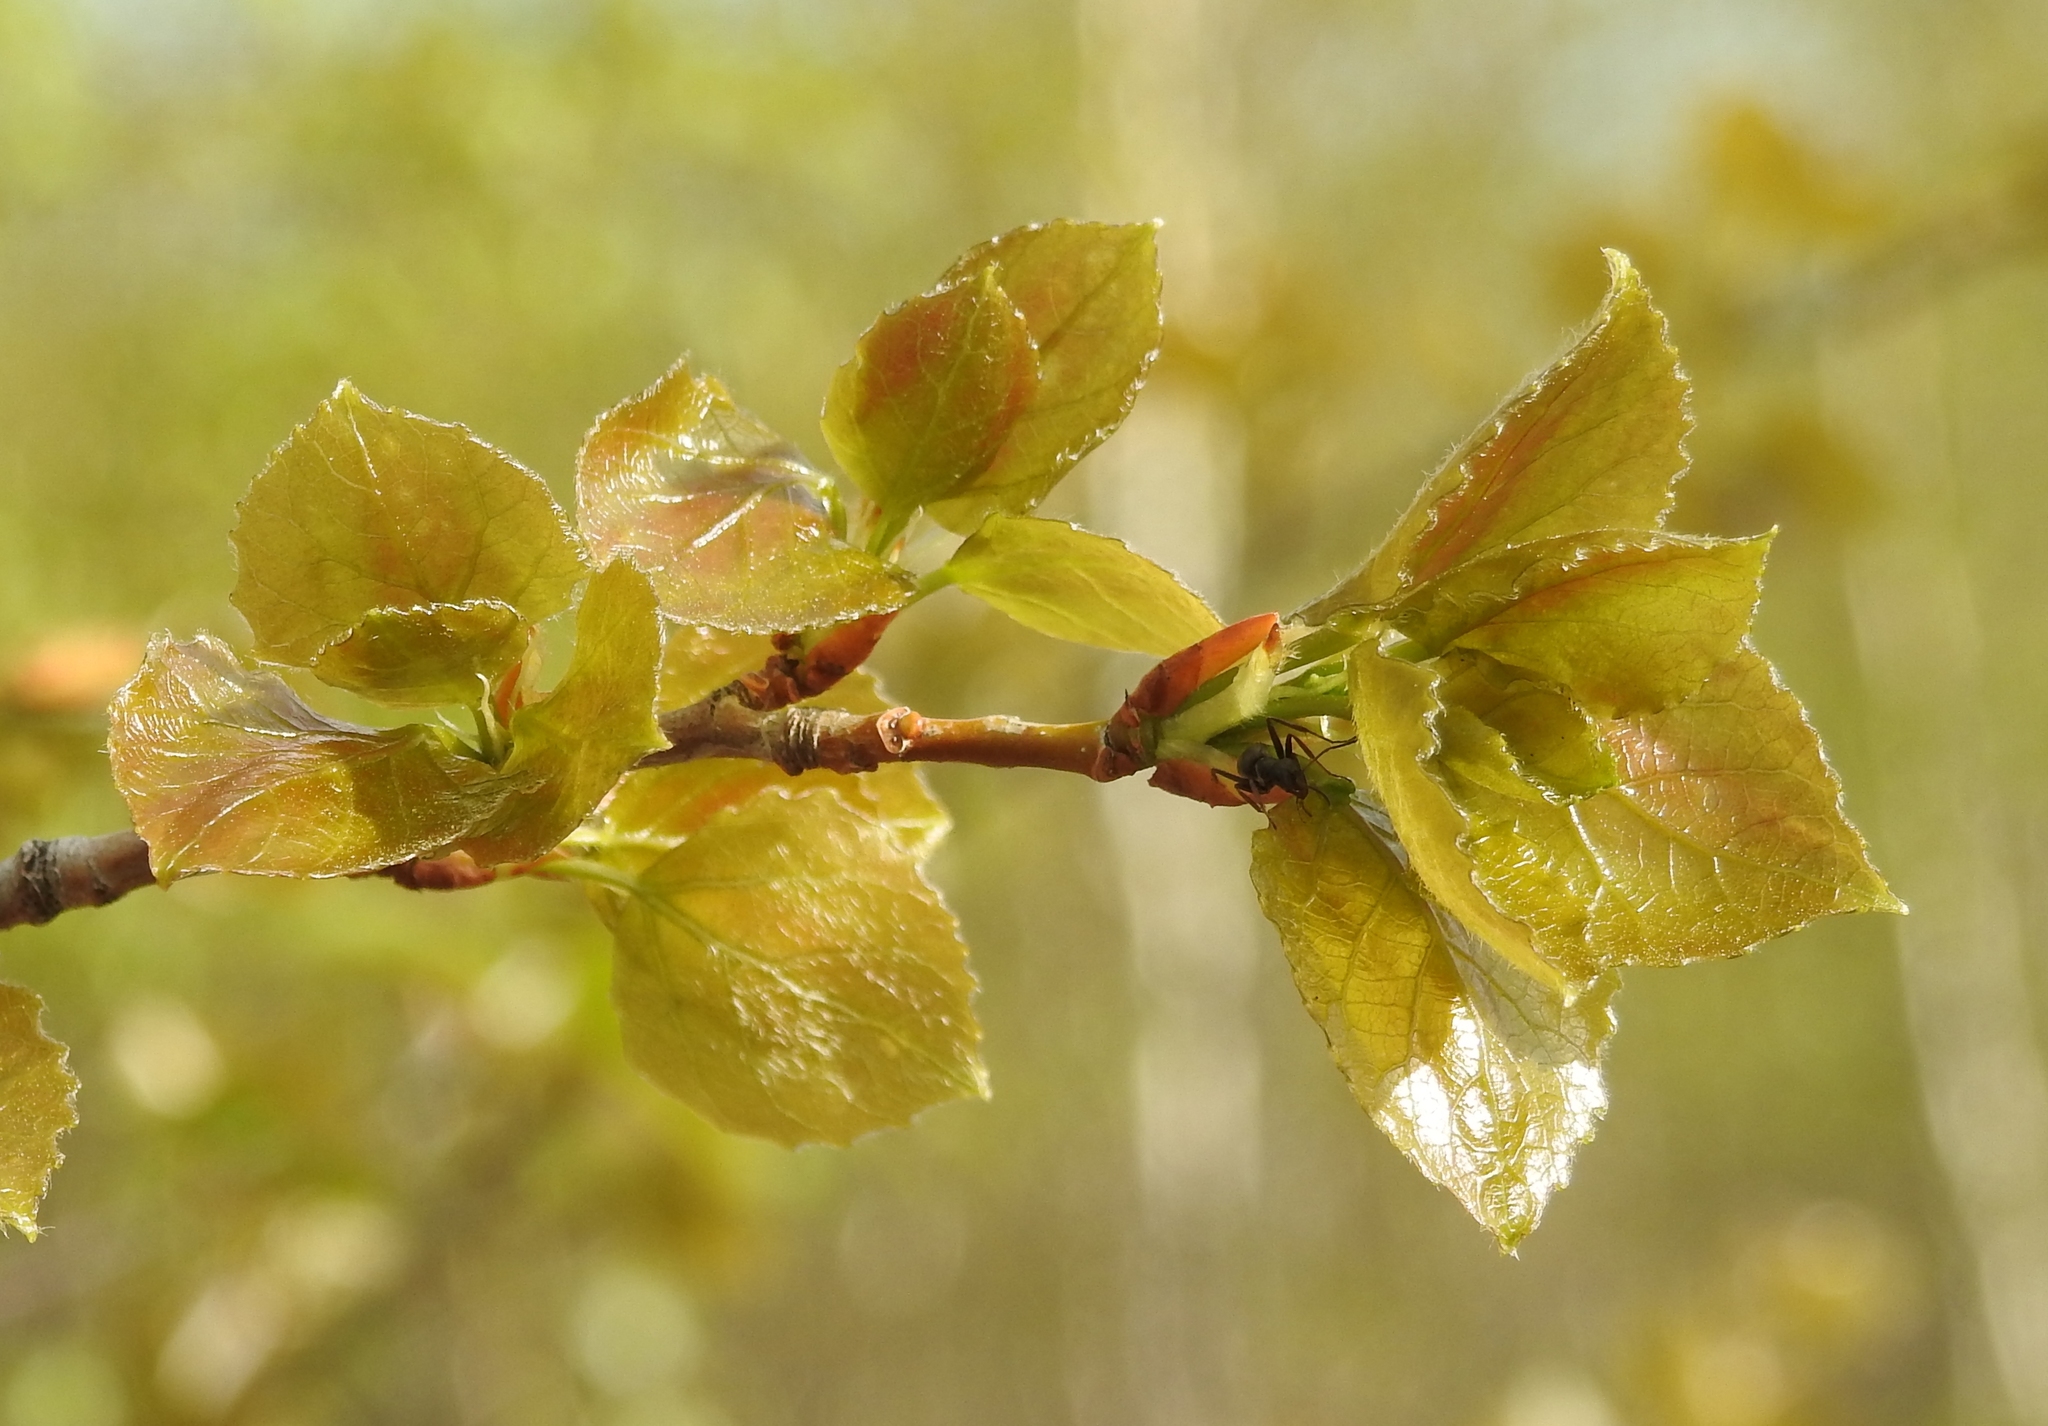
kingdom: Plantae
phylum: Tracheophyta
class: Magnoliopsida
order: Malpighiales
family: Salicaceae
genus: Populus
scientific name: Populus tremula
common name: European aspen
